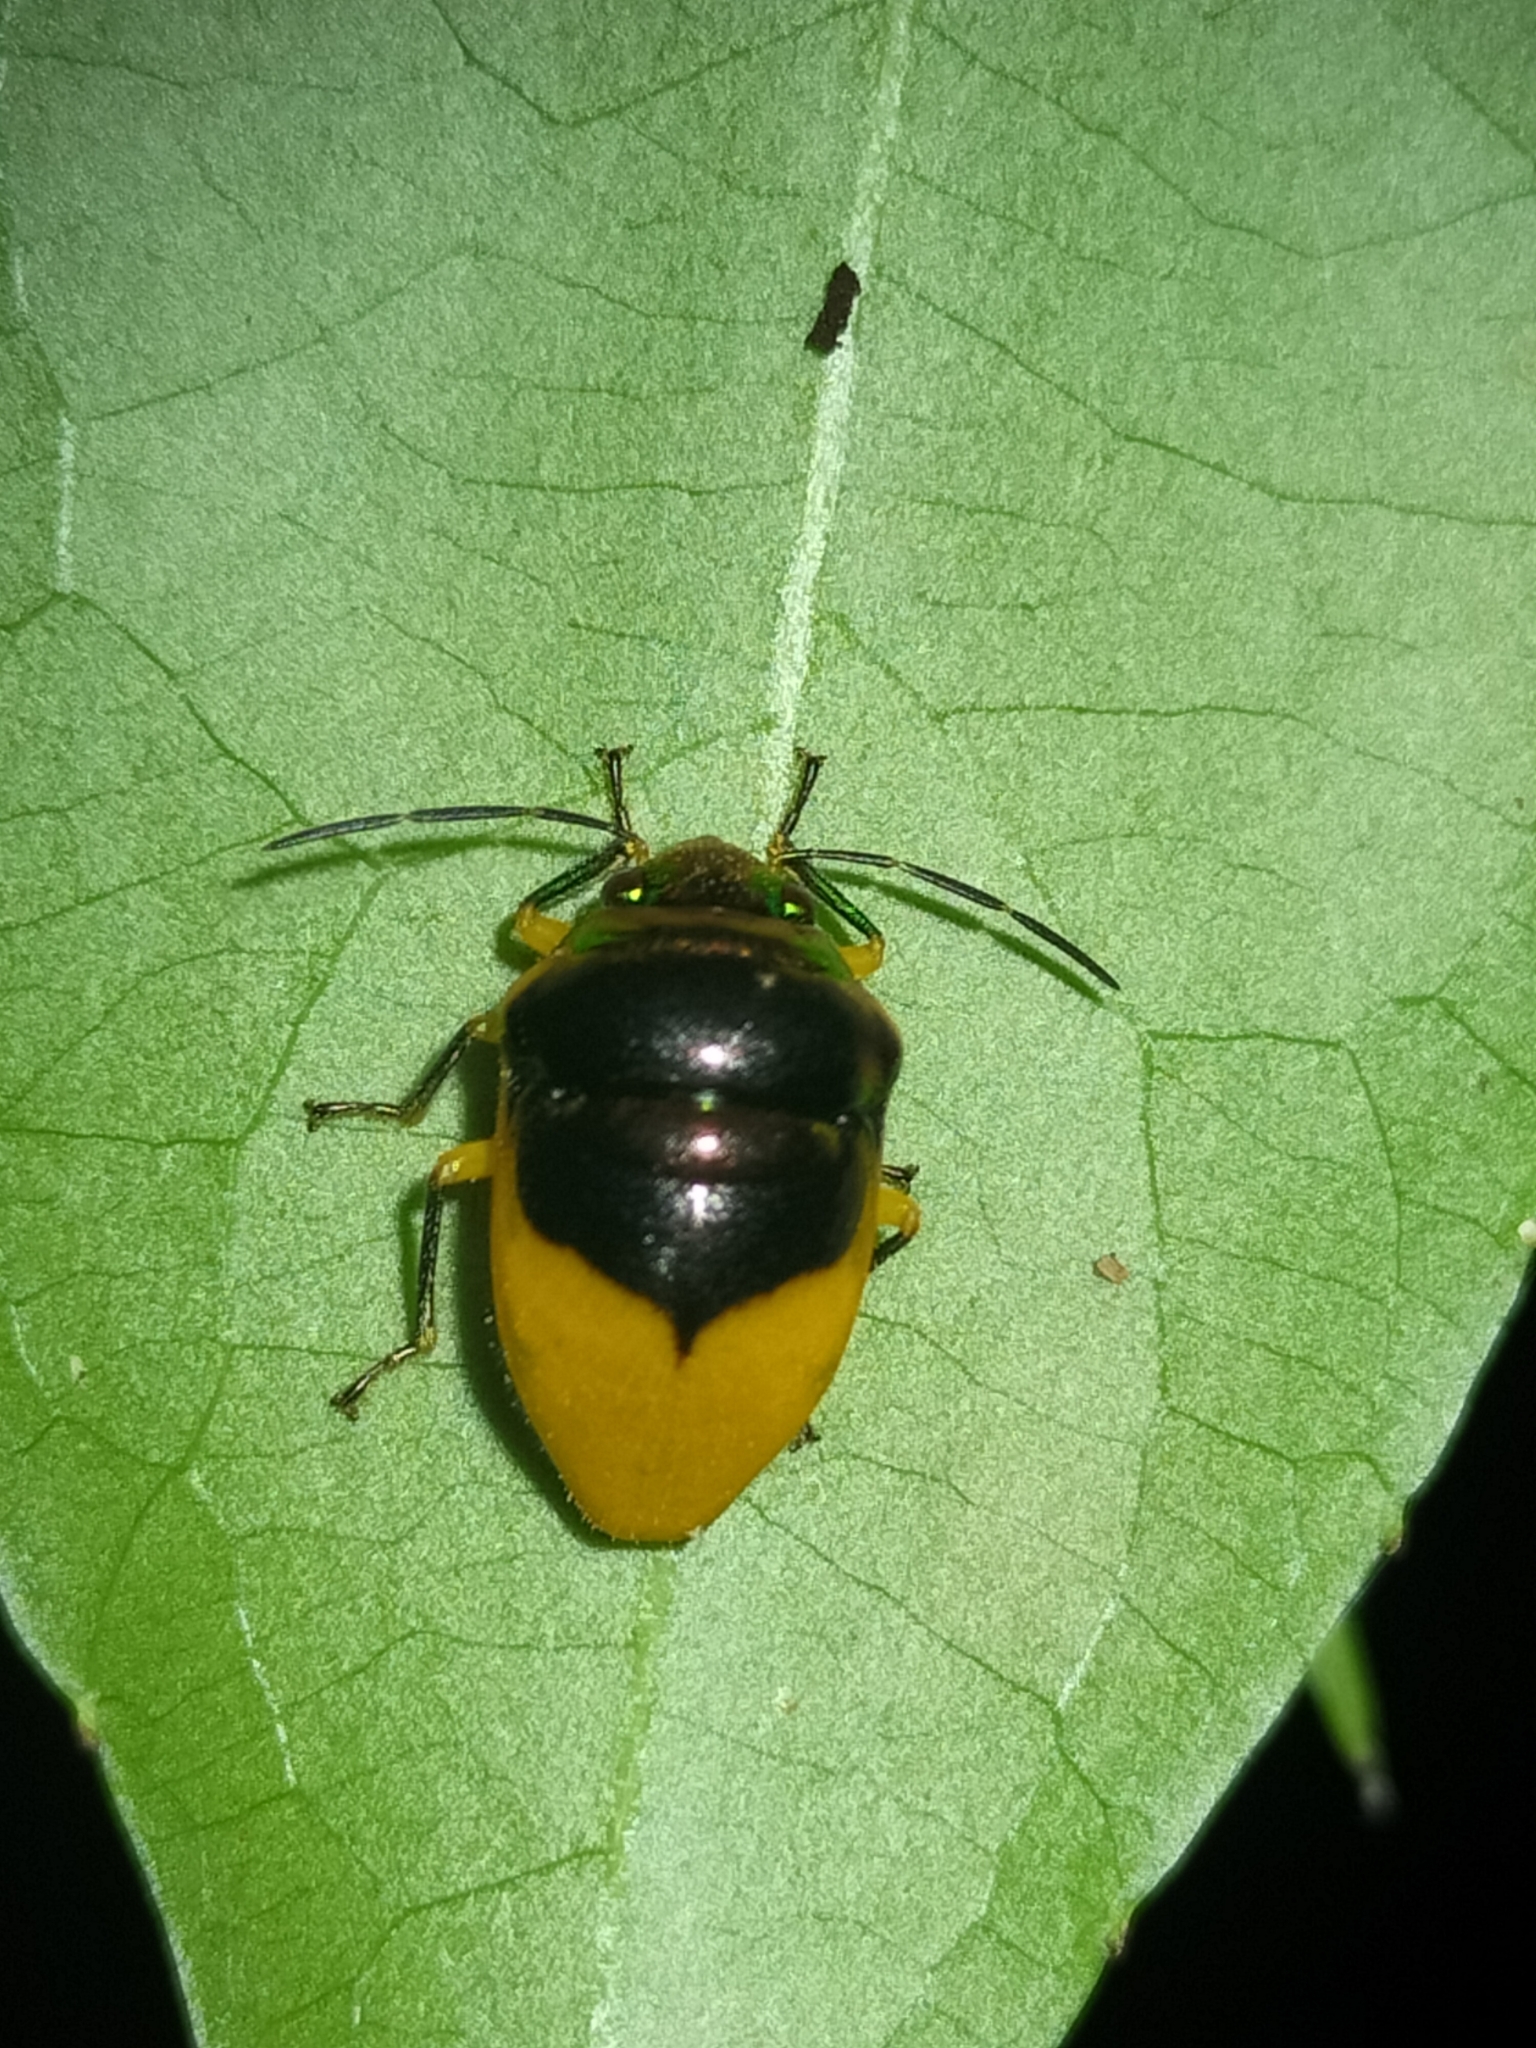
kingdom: Animalia
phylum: Arthropoda
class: Insecta
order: Hemiptera
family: Scutelleridae
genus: Lampromicra
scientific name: Lampromicra
